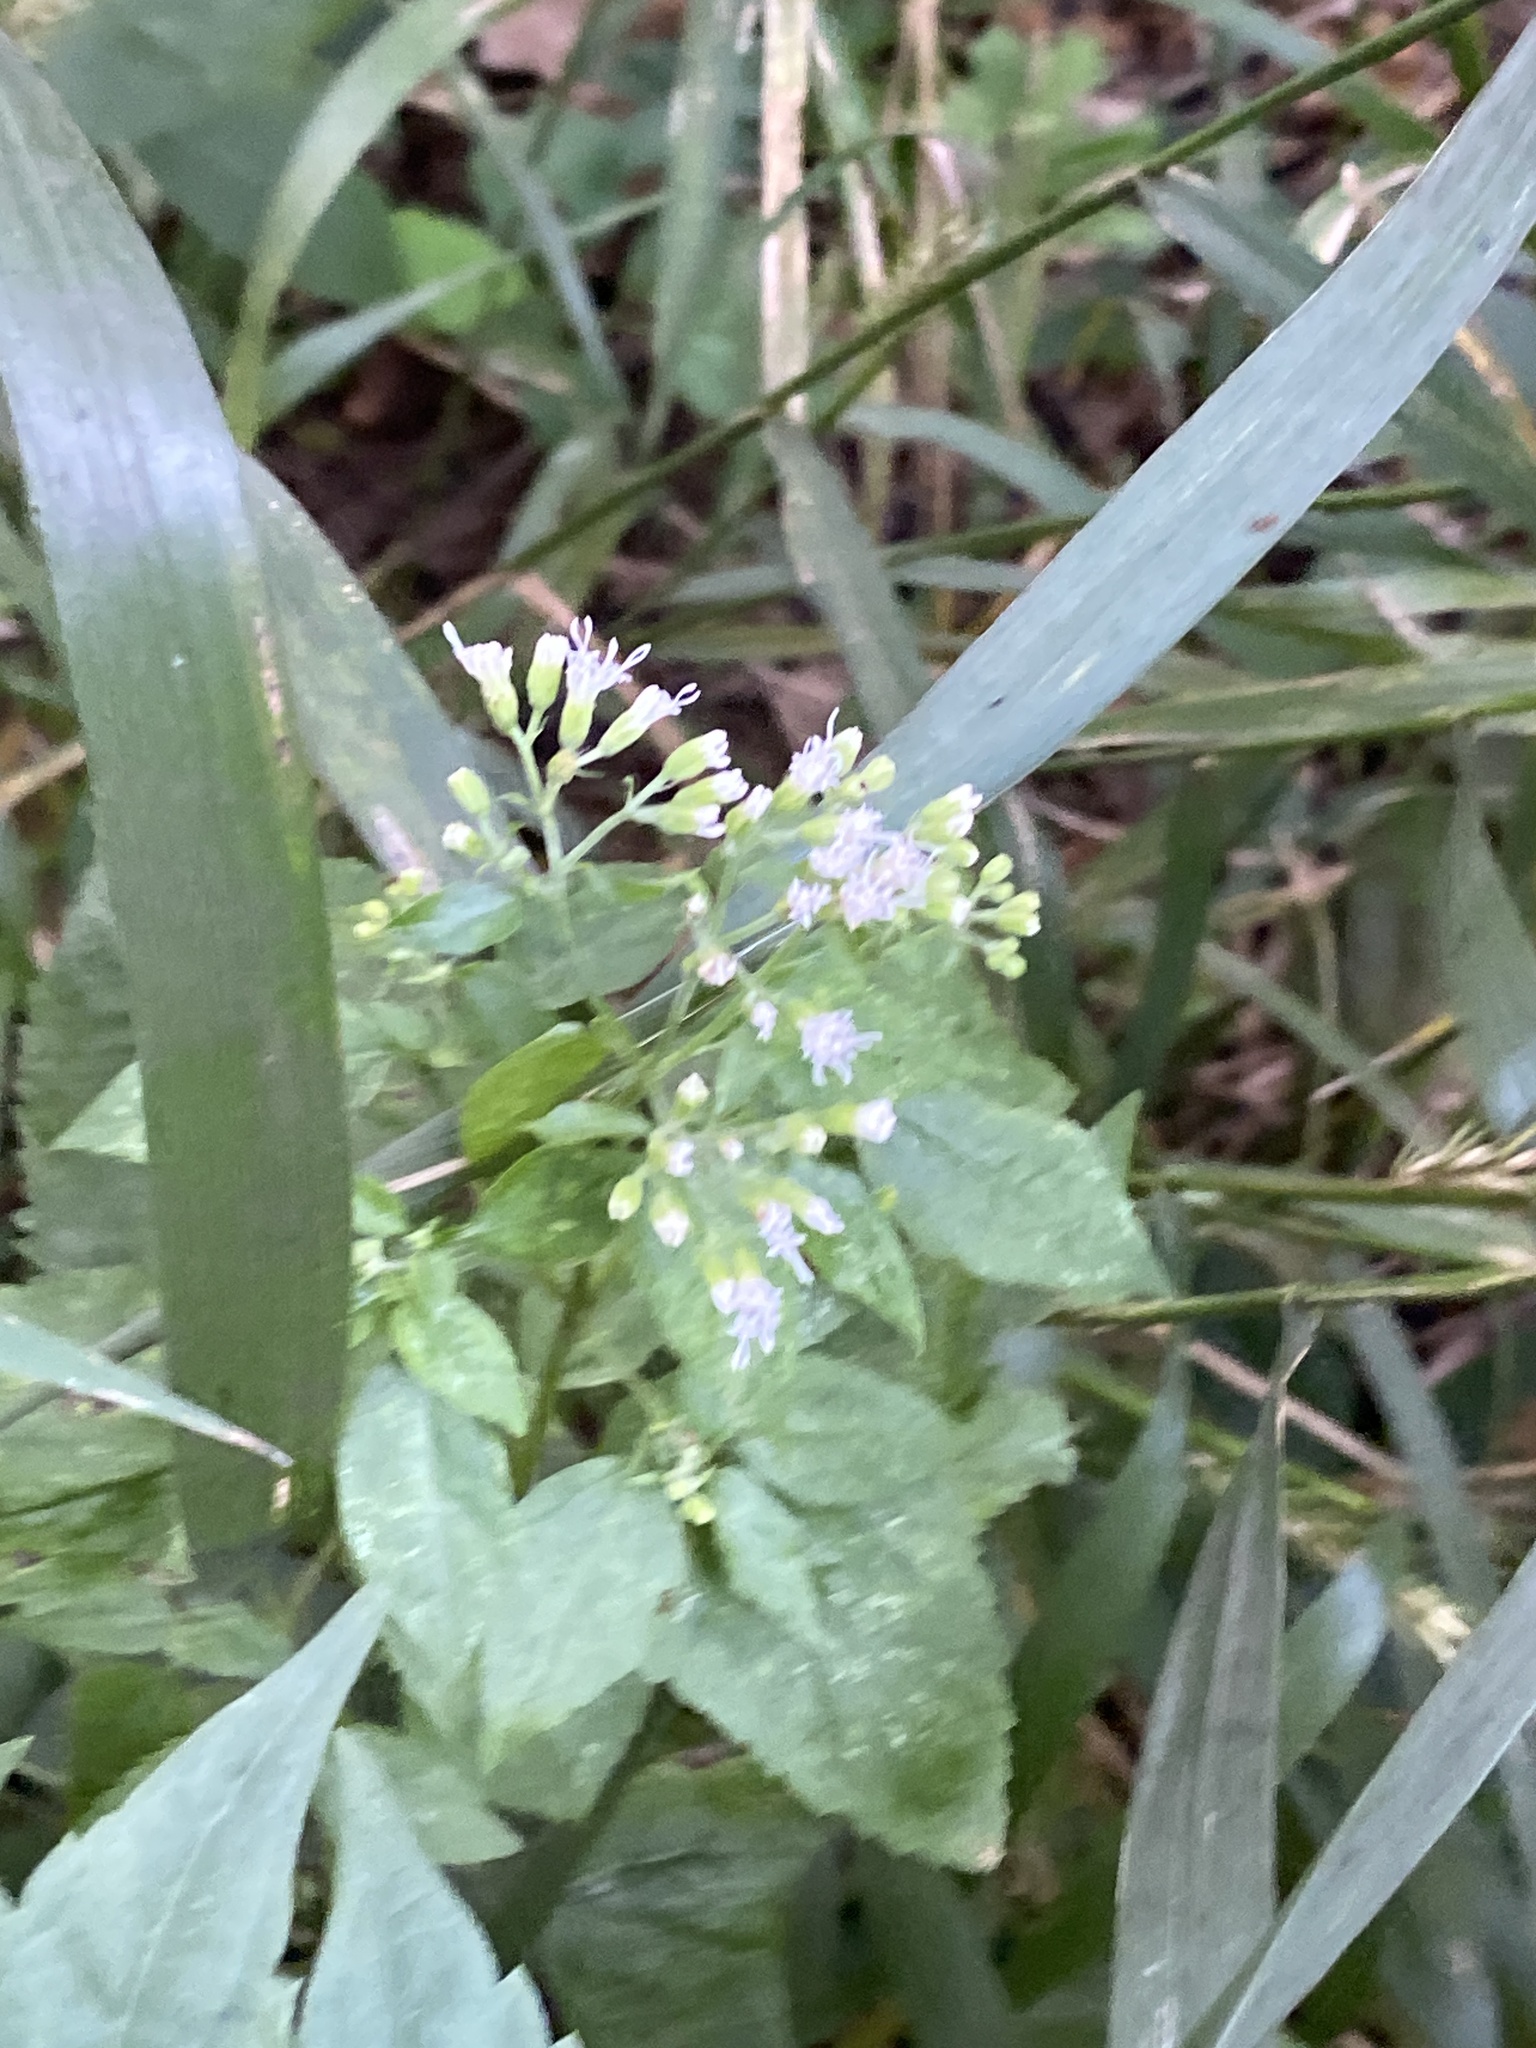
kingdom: Plantae
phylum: Tracheophyta
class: Magnoliopsida
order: Asterales
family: Asteraceae
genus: Ageratina
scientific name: Ageratina altissima
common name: White snakeroot
